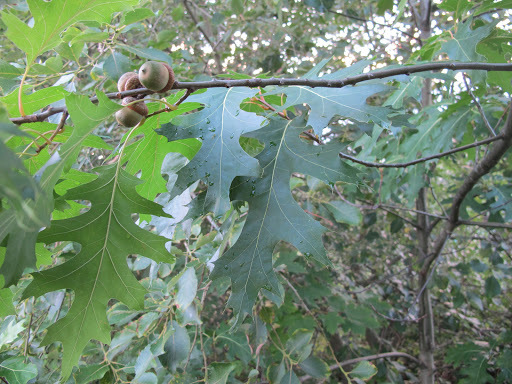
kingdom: Plantae
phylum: Tracheophyta
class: Magnoliopsida
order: Fagales
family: Fagaceae
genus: Quercus
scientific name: Quercus rubra
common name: Red oak
